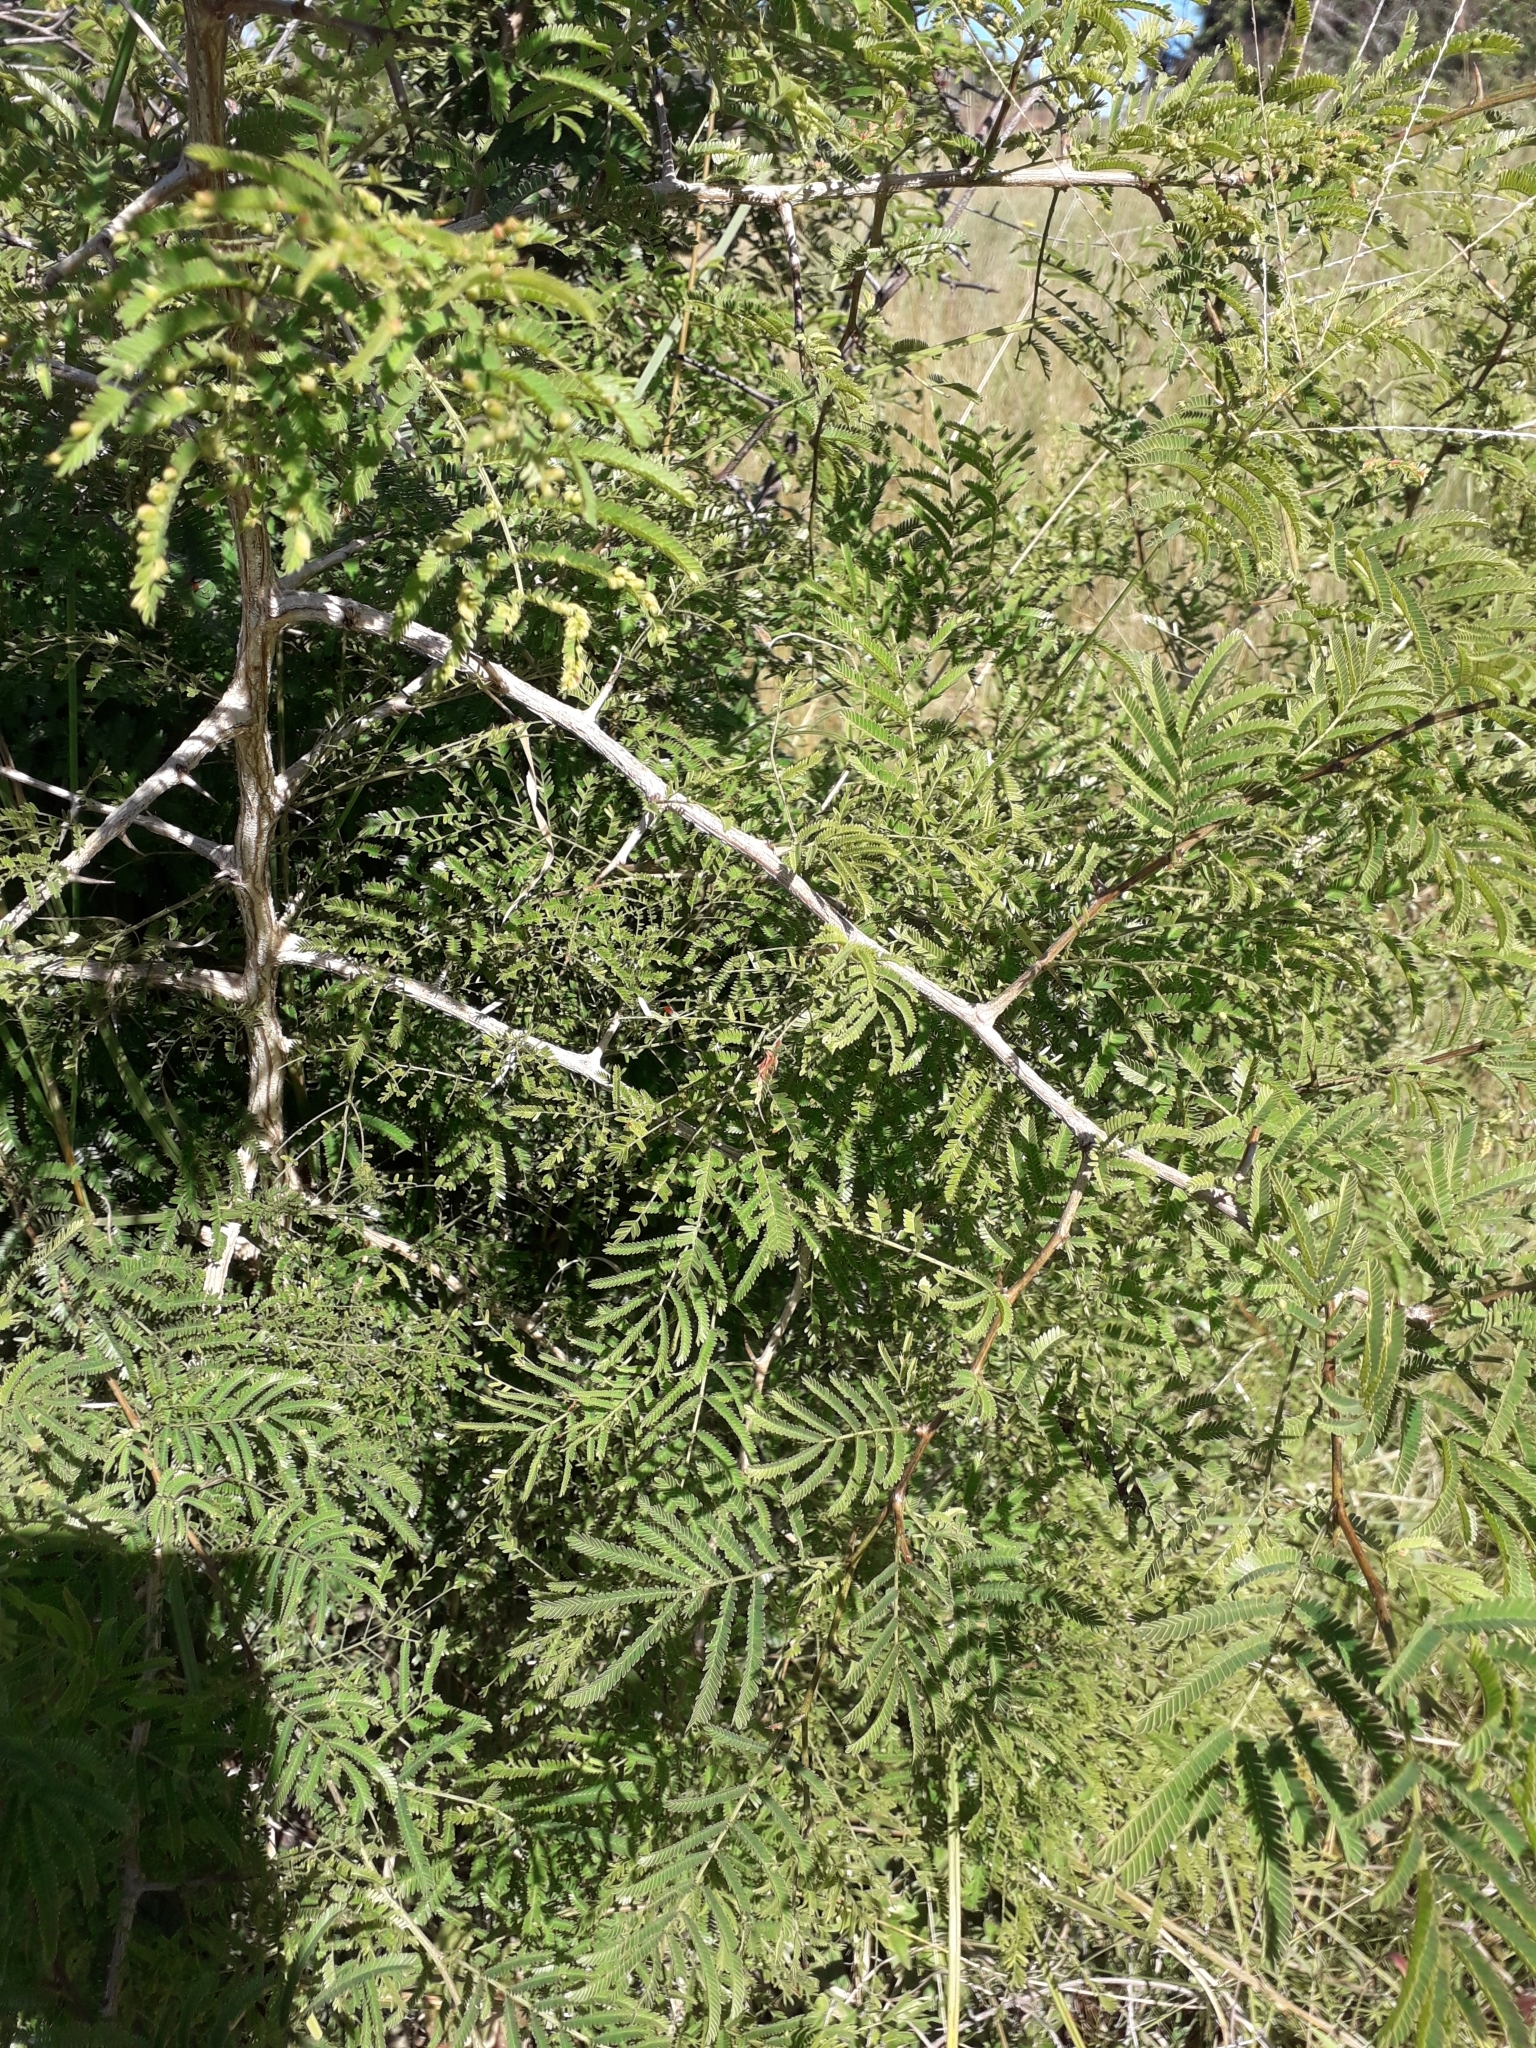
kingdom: Plantae
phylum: Tracheophyta
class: Magnoliopsida
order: Fabales
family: Fabaceae
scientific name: Fabaceae
